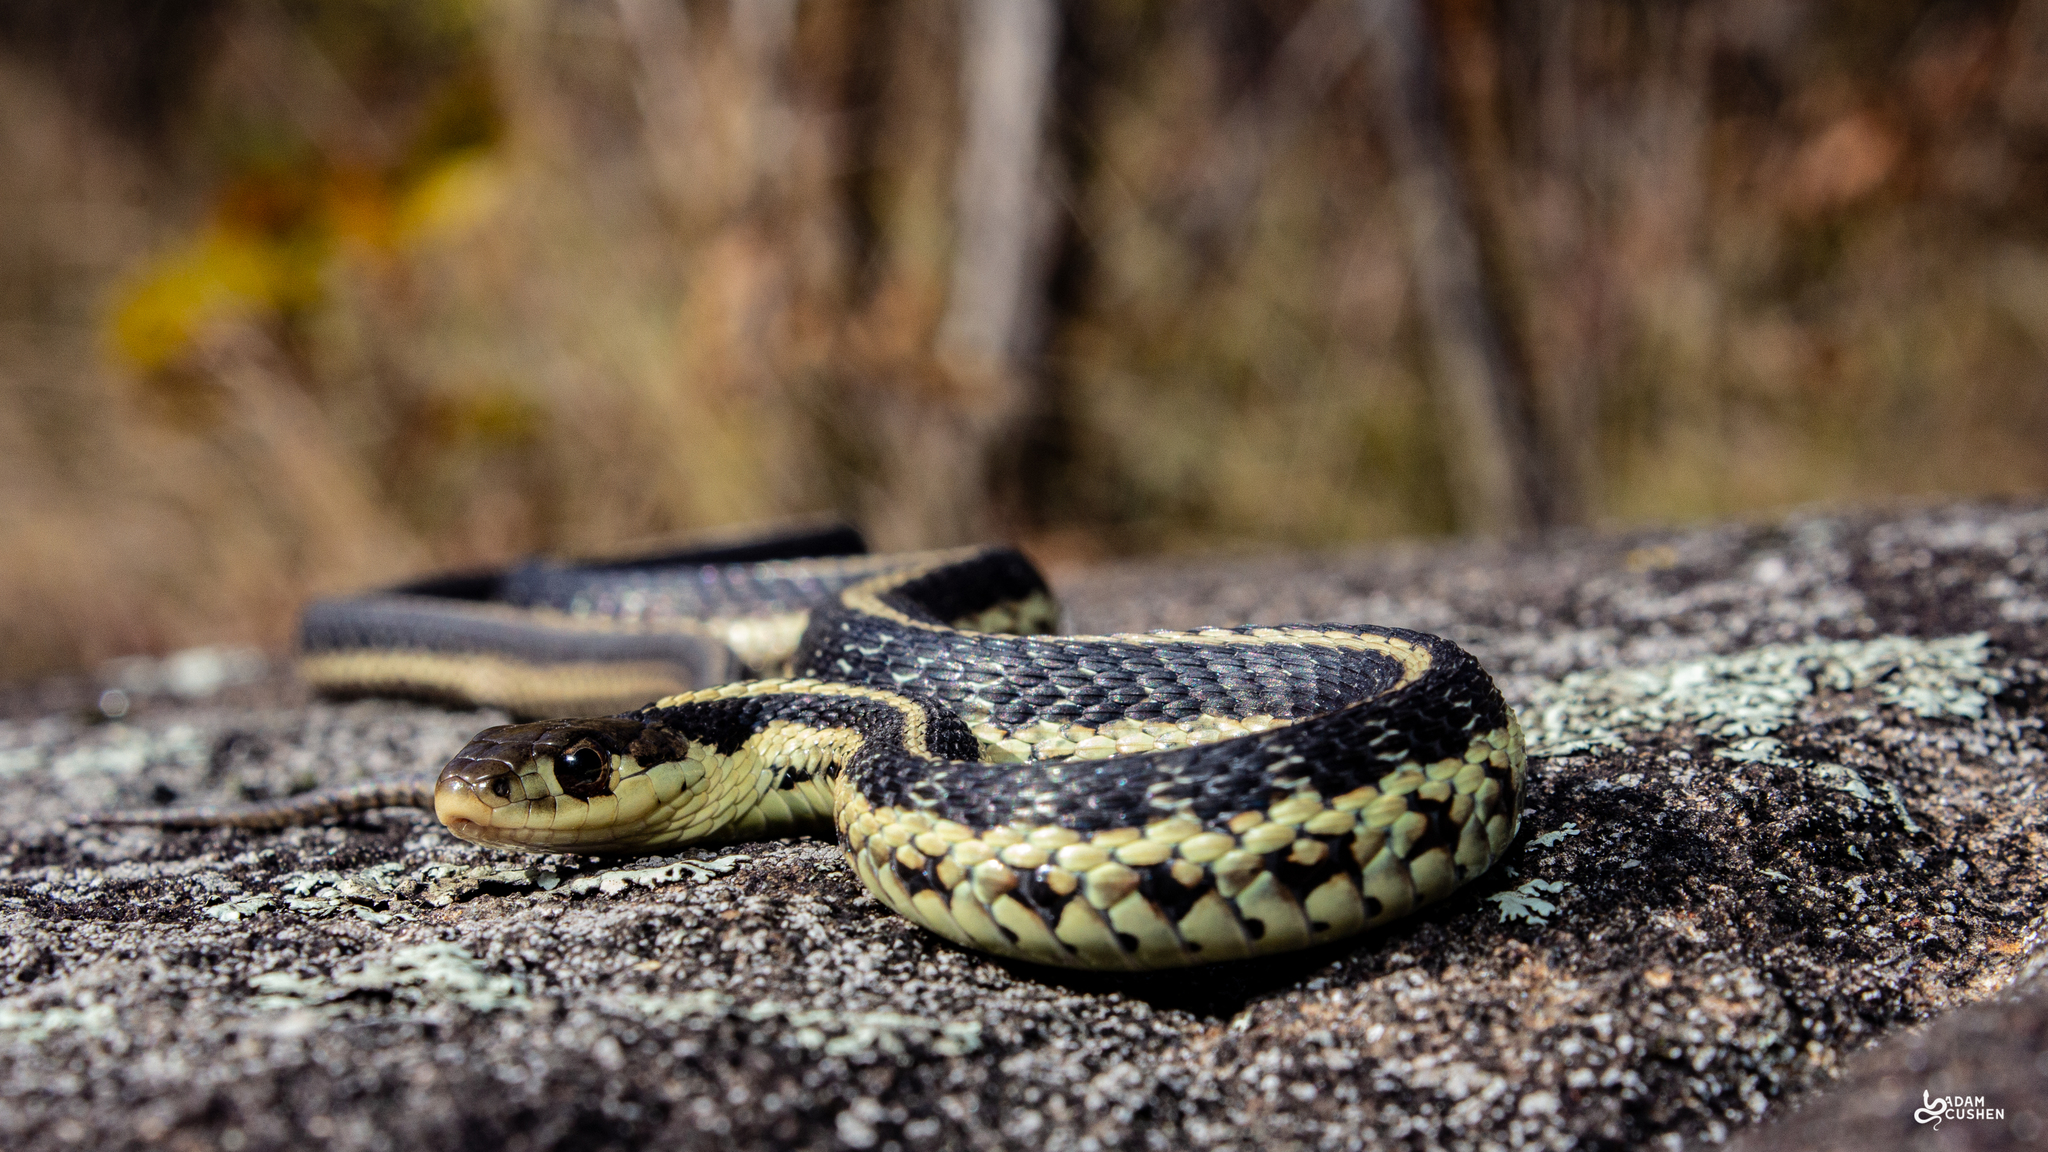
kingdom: Animalia
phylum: Chordata
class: Squamata
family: Colubridae
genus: Thamnophis
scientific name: Thamnophis sirtalis
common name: Common garter snake
